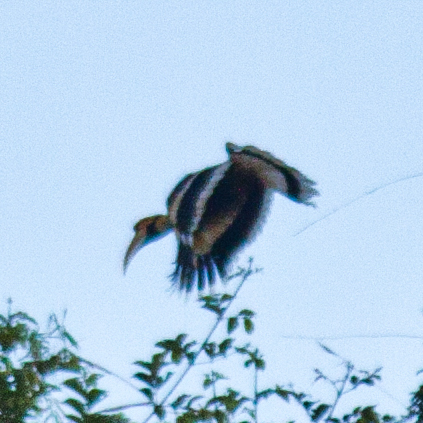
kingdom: Animalia
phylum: Chordata
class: Aves
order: Bucerotiformes
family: Bucerotidae
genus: Buceros
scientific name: Buceros bicornis
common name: Great hornbill
